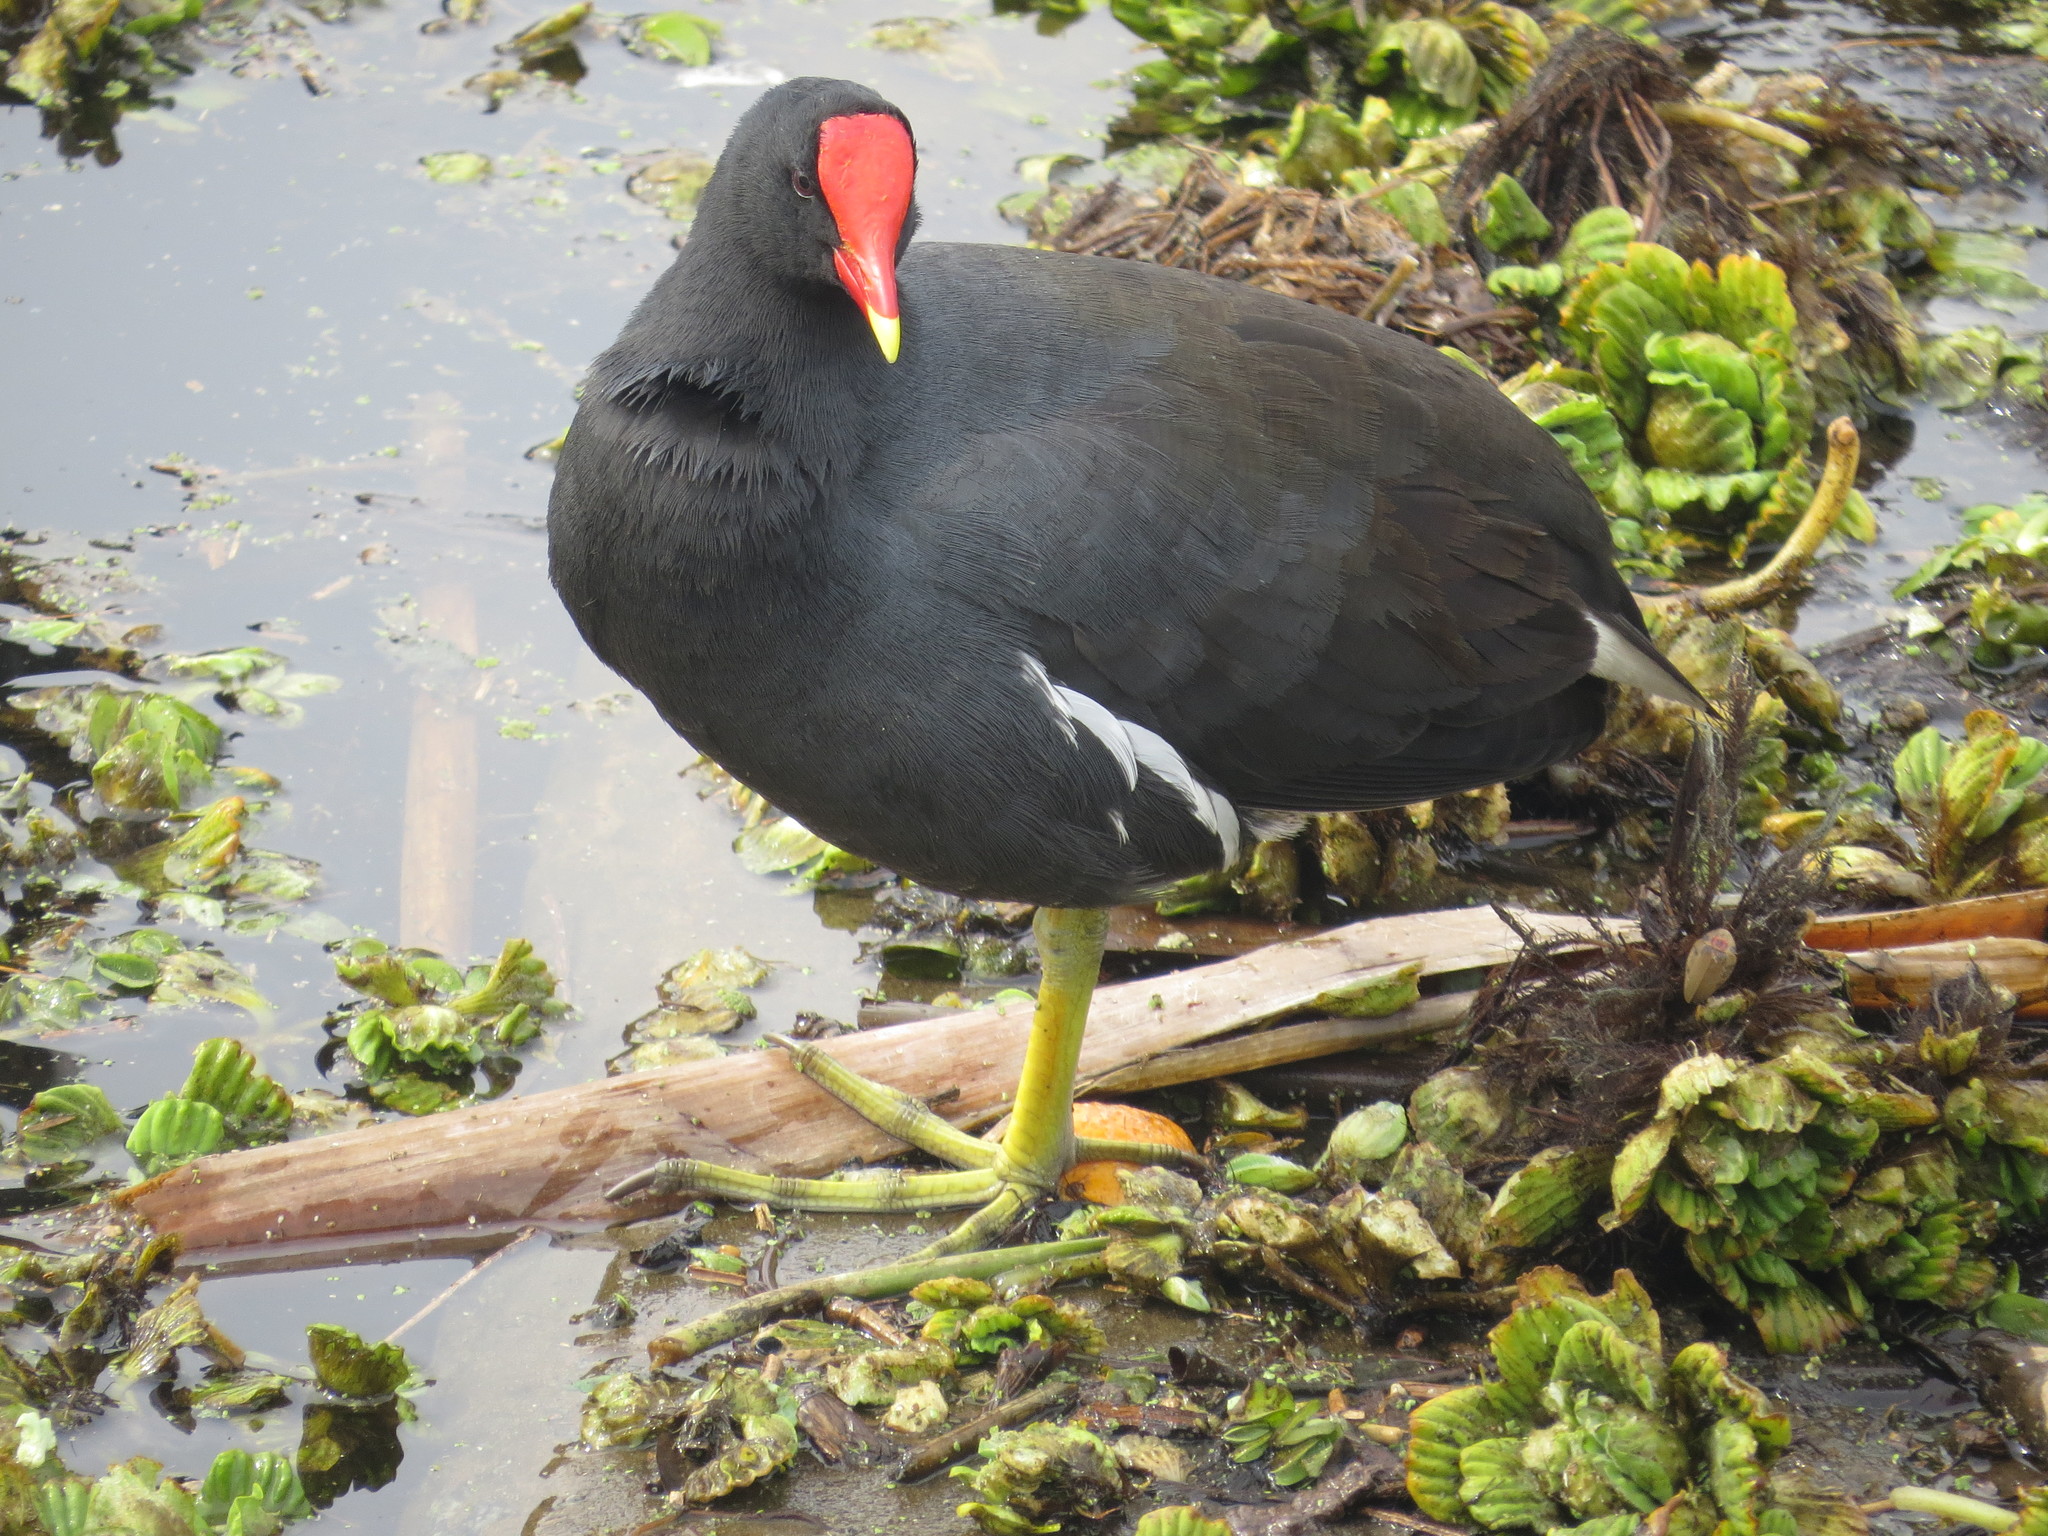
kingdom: Animalia
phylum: Chordata
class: Aves
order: Gruiformes
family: Rallidae
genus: Gallinula
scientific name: Gallinula chloropus
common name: Common moorhen
